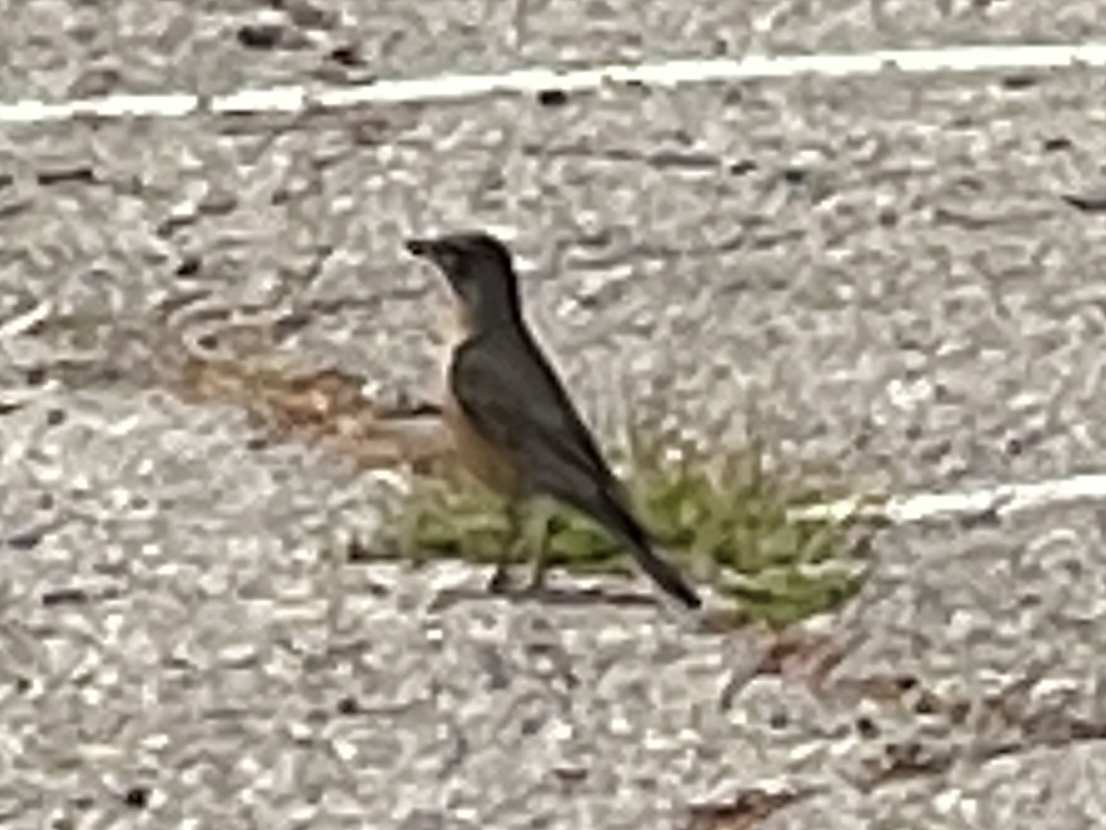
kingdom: Animalia
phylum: Chordata
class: Aves
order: Passeriformes
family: Turdidae
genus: Turdus
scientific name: Turdus migratorius
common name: American robin
